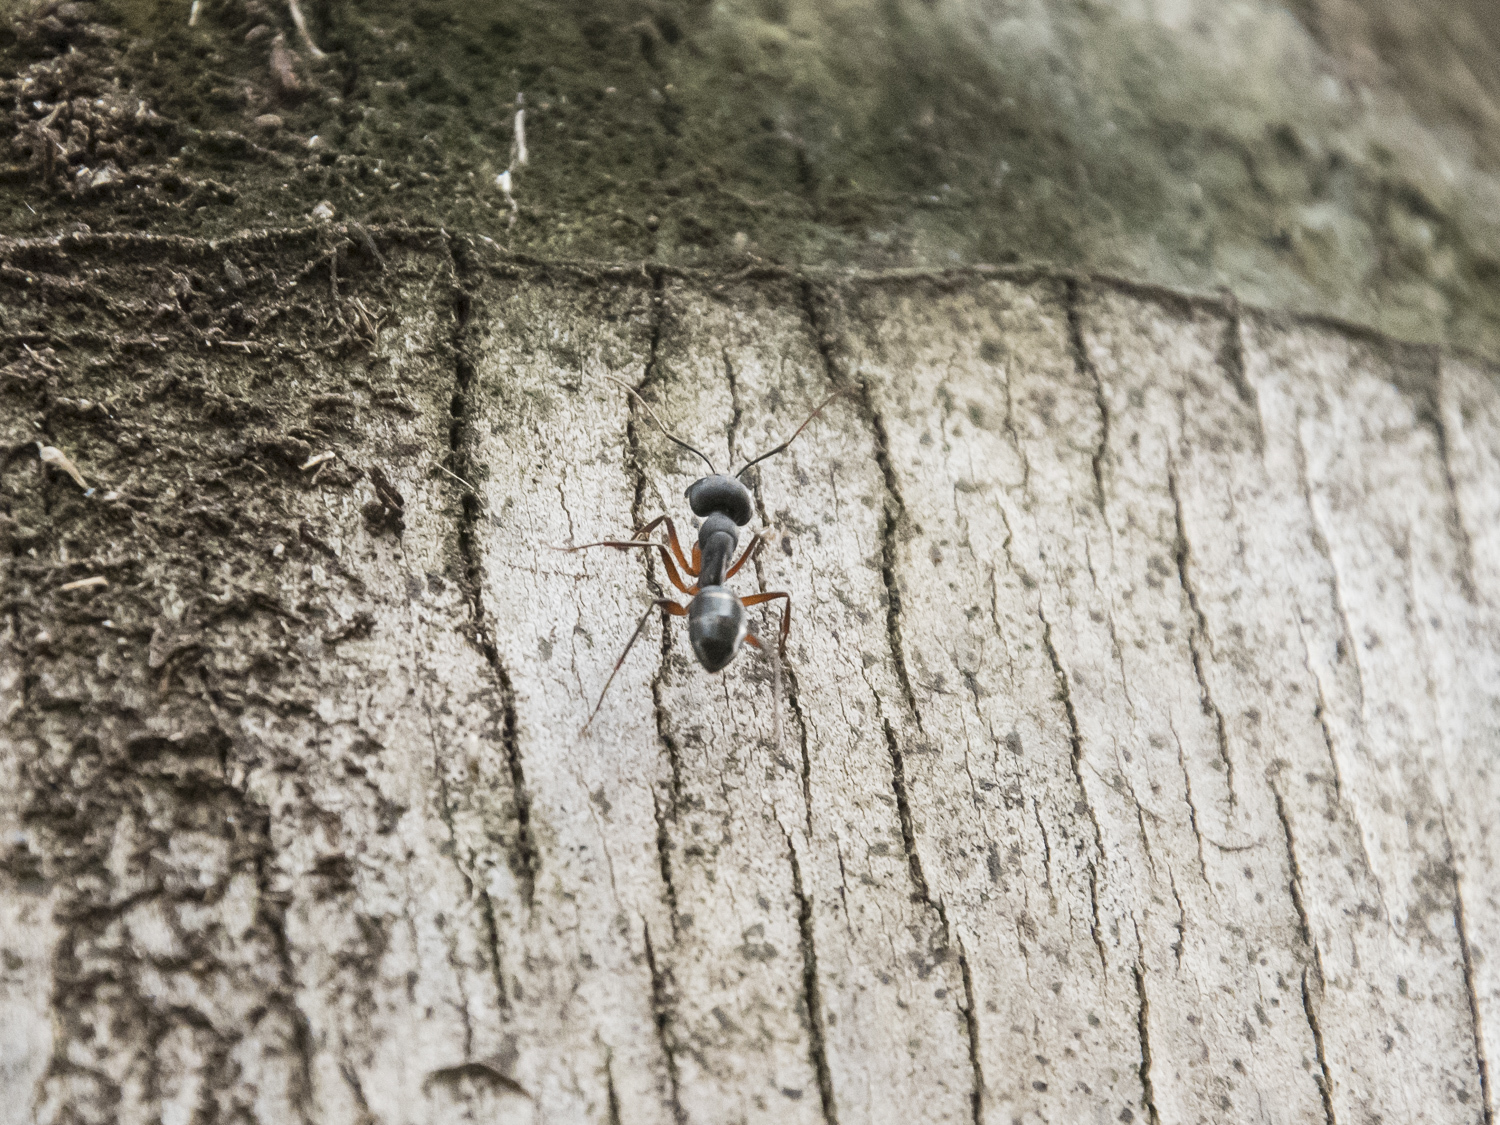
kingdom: Animalia
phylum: Arthropoda
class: Insecta
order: Hymenoptera
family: Formicidae
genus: Camponotus
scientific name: Camponotus compressus
